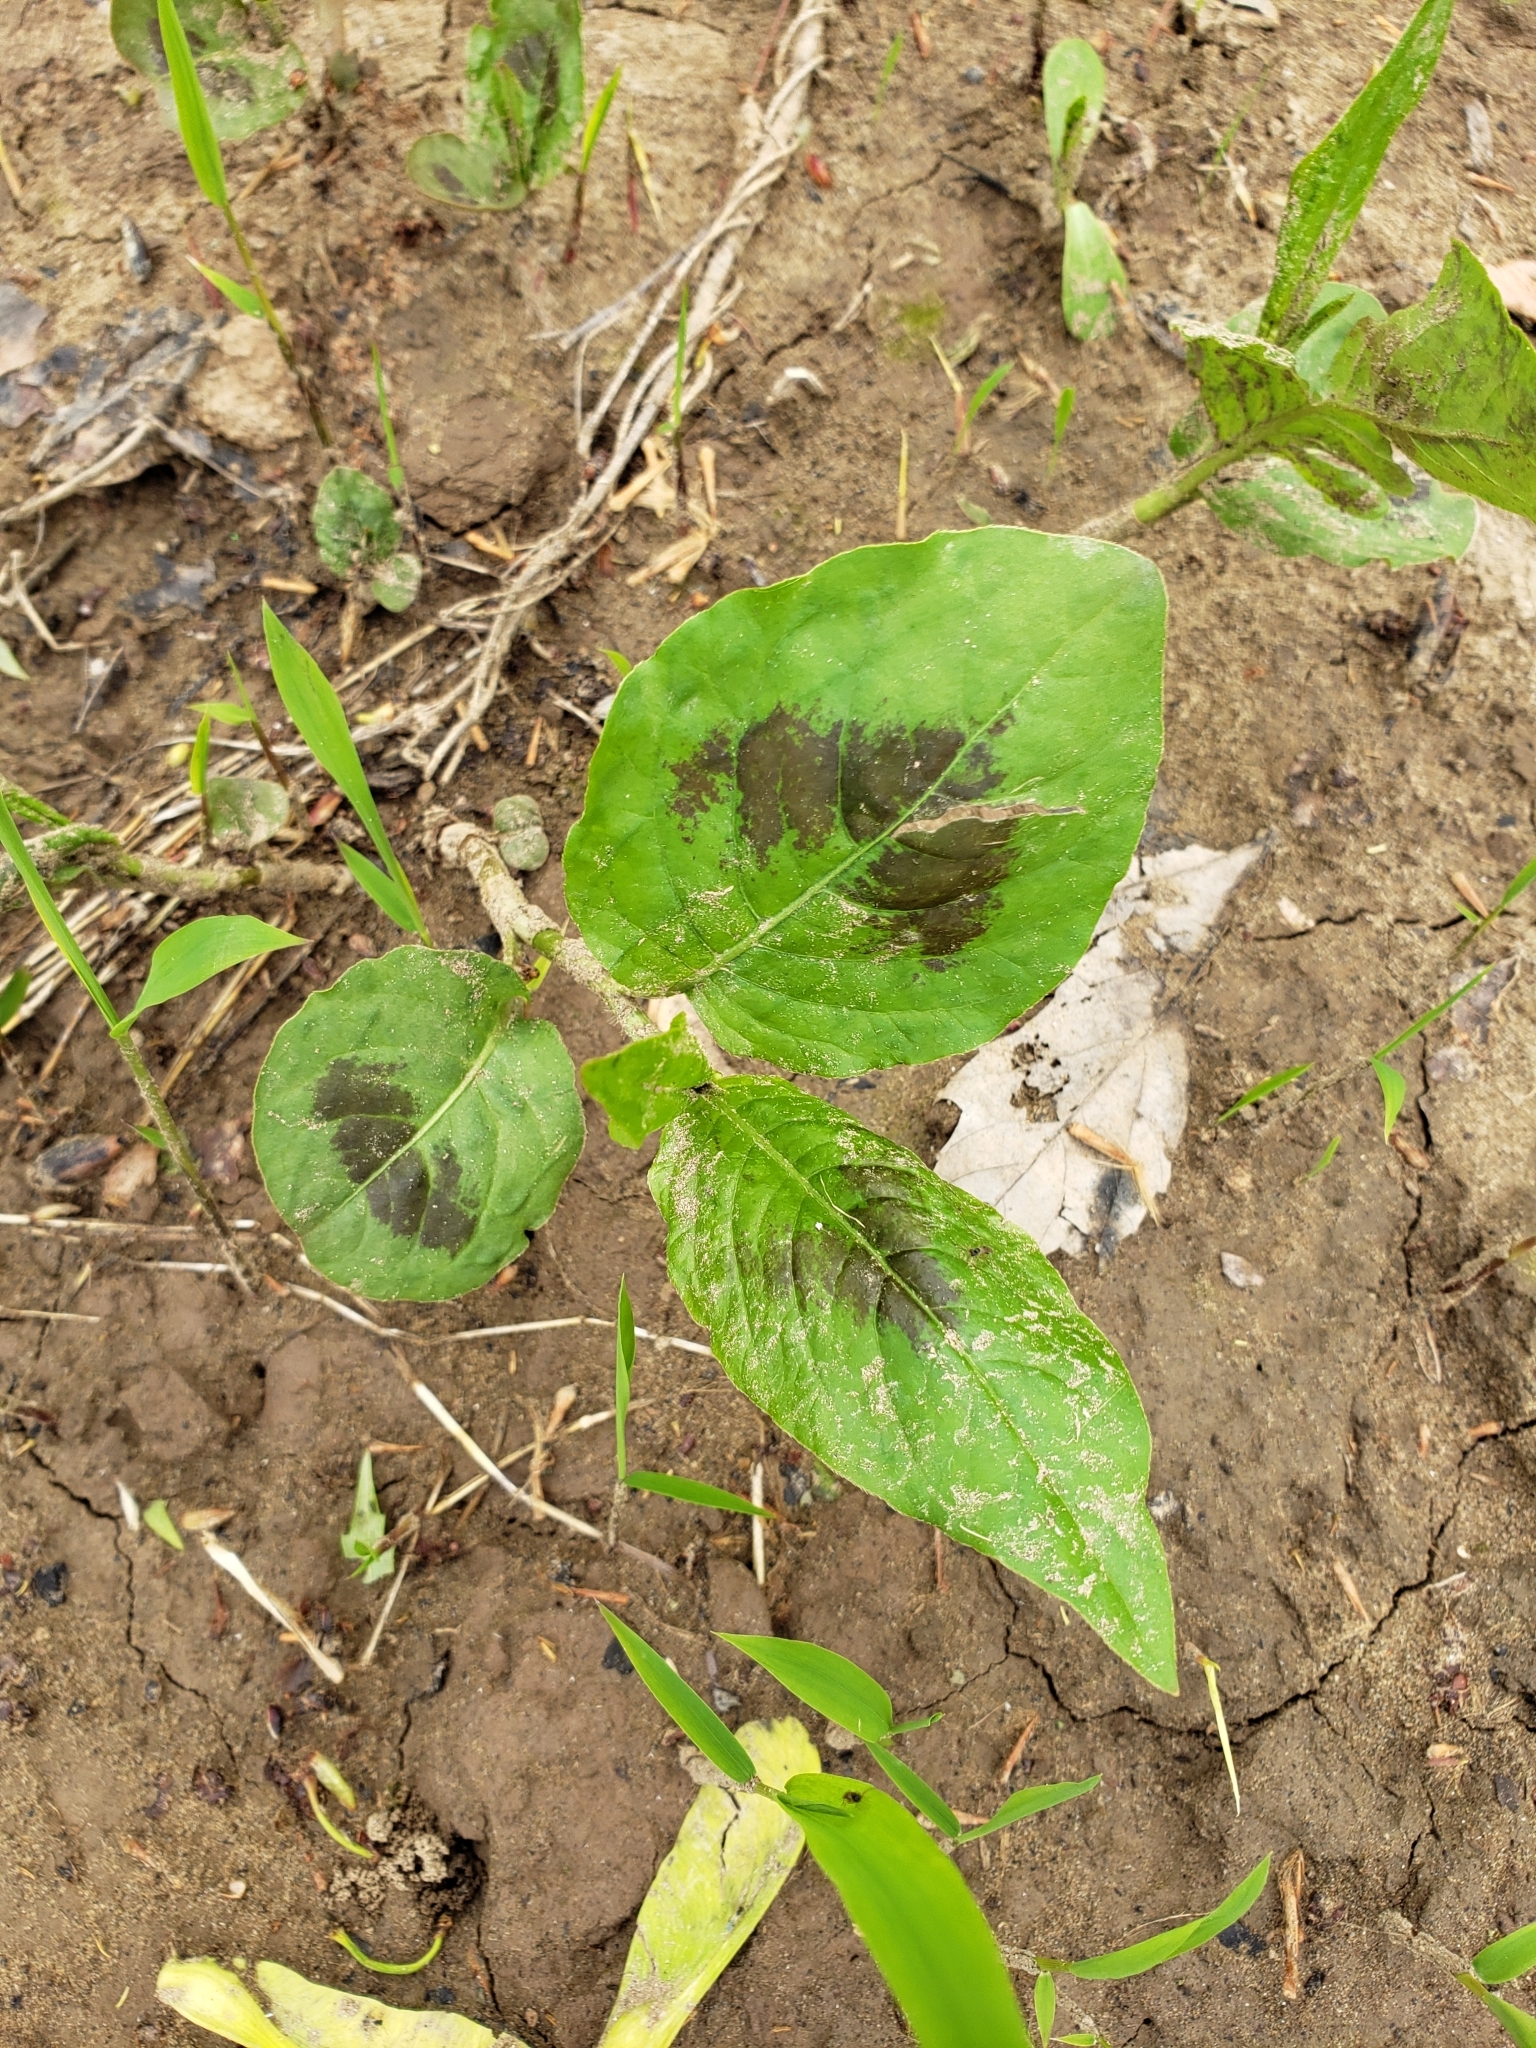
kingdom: Plantae
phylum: Tracheophyta
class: Magnoliopsida
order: Caryophyllales
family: Polygonaceae
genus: Persicaria
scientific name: Persicaria virginiana
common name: Jumpseed
